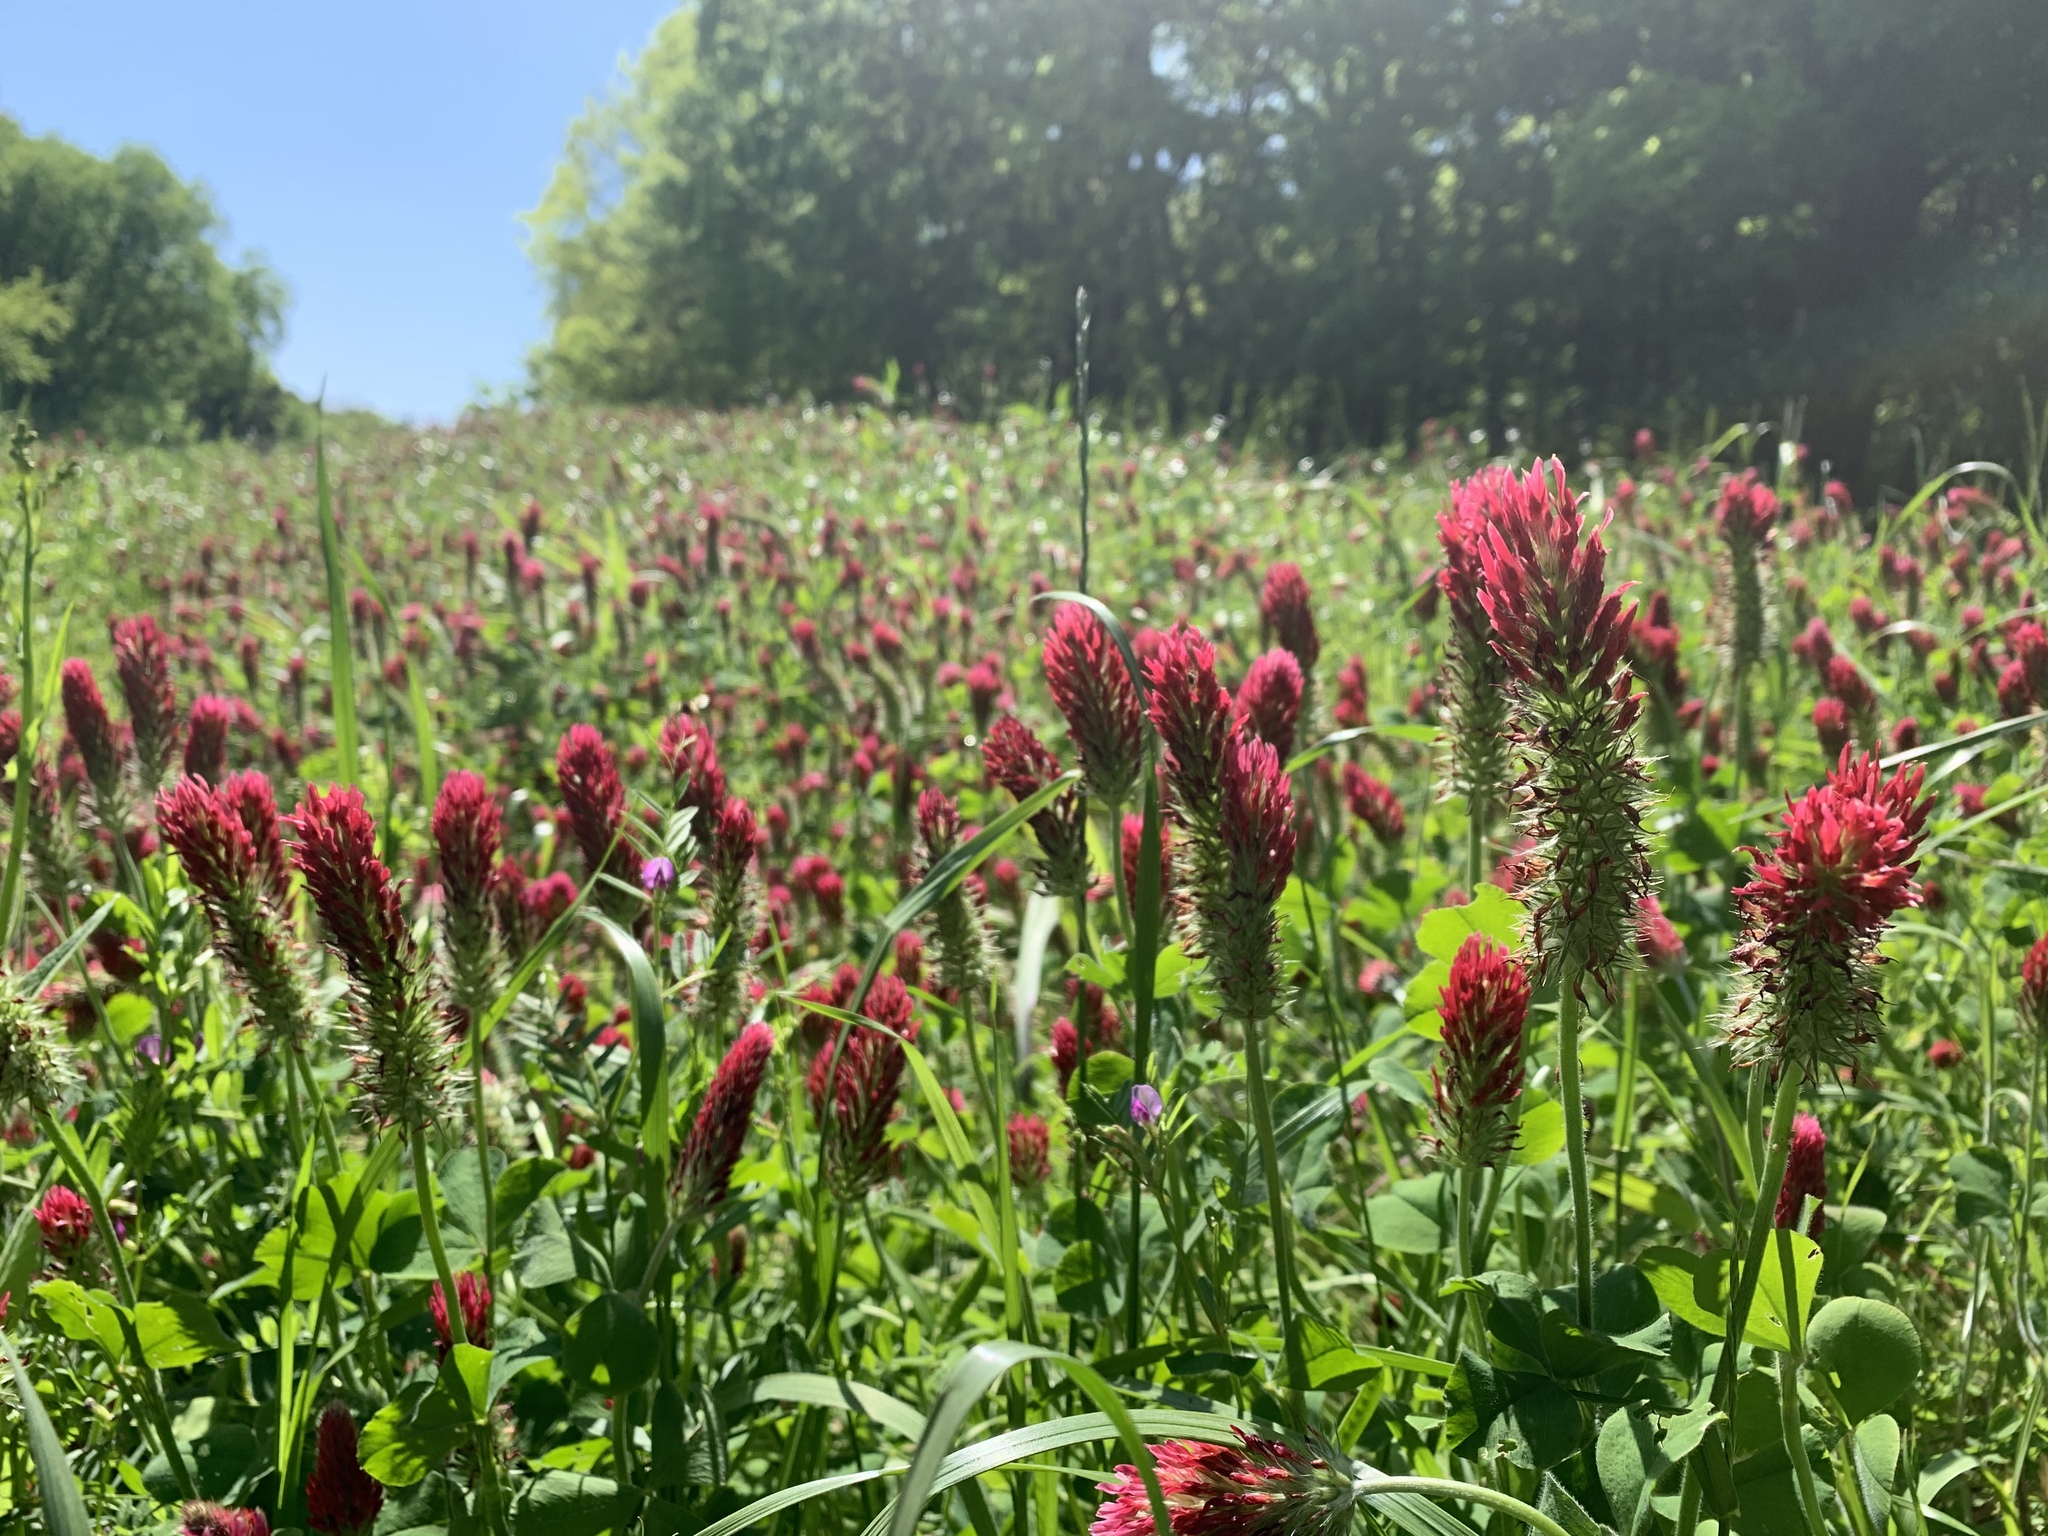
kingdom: Plantae
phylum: Tracheophyta
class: Magnoliopsida
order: Fabales
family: Fabaceae
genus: Trifolium
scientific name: Trifolium incarnatum
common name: Crimson clover
